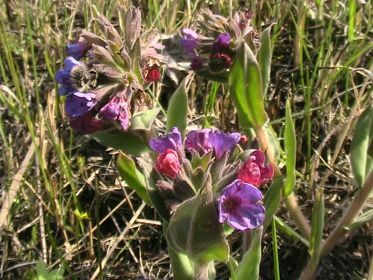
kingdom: Plantae
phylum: Tracheophyta
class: Magnoliopsida
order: Boraginales
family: Boraginaceae
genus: Pulmonaria
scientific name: Pulmonaria mollis
